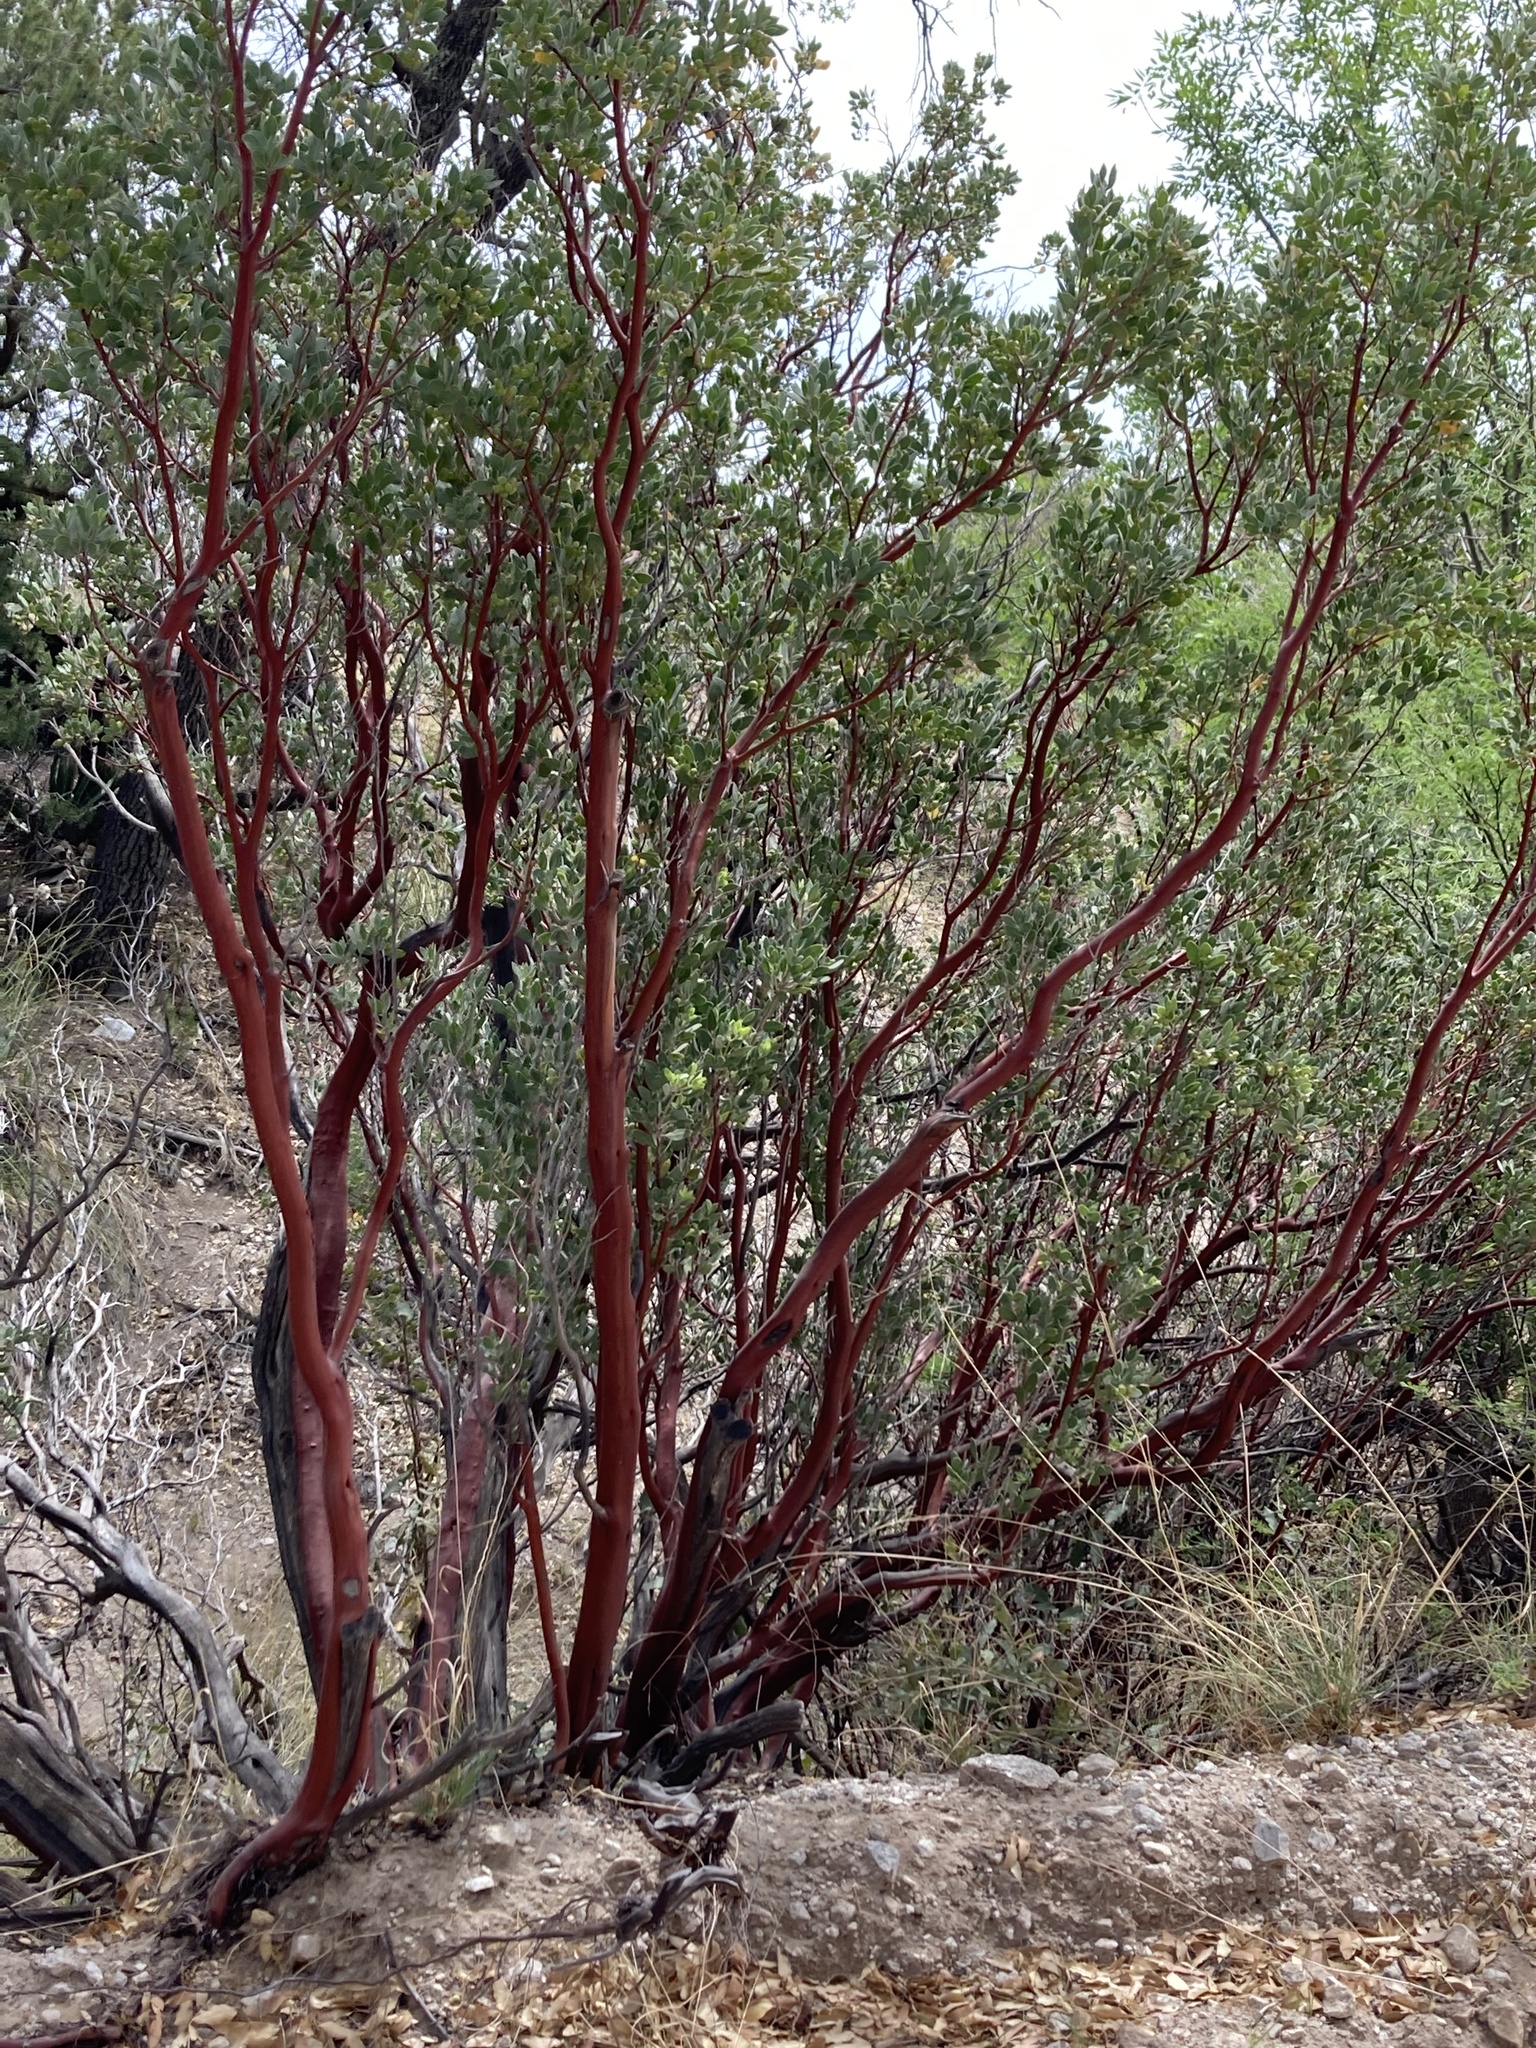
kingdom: Plantae
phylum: Tracheophyta
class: Magnoliopsida
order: Ericales
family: Ericaceae
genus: Arctostaphylos
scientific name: Arctostaphylos pungens
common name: Mexican manzanita
